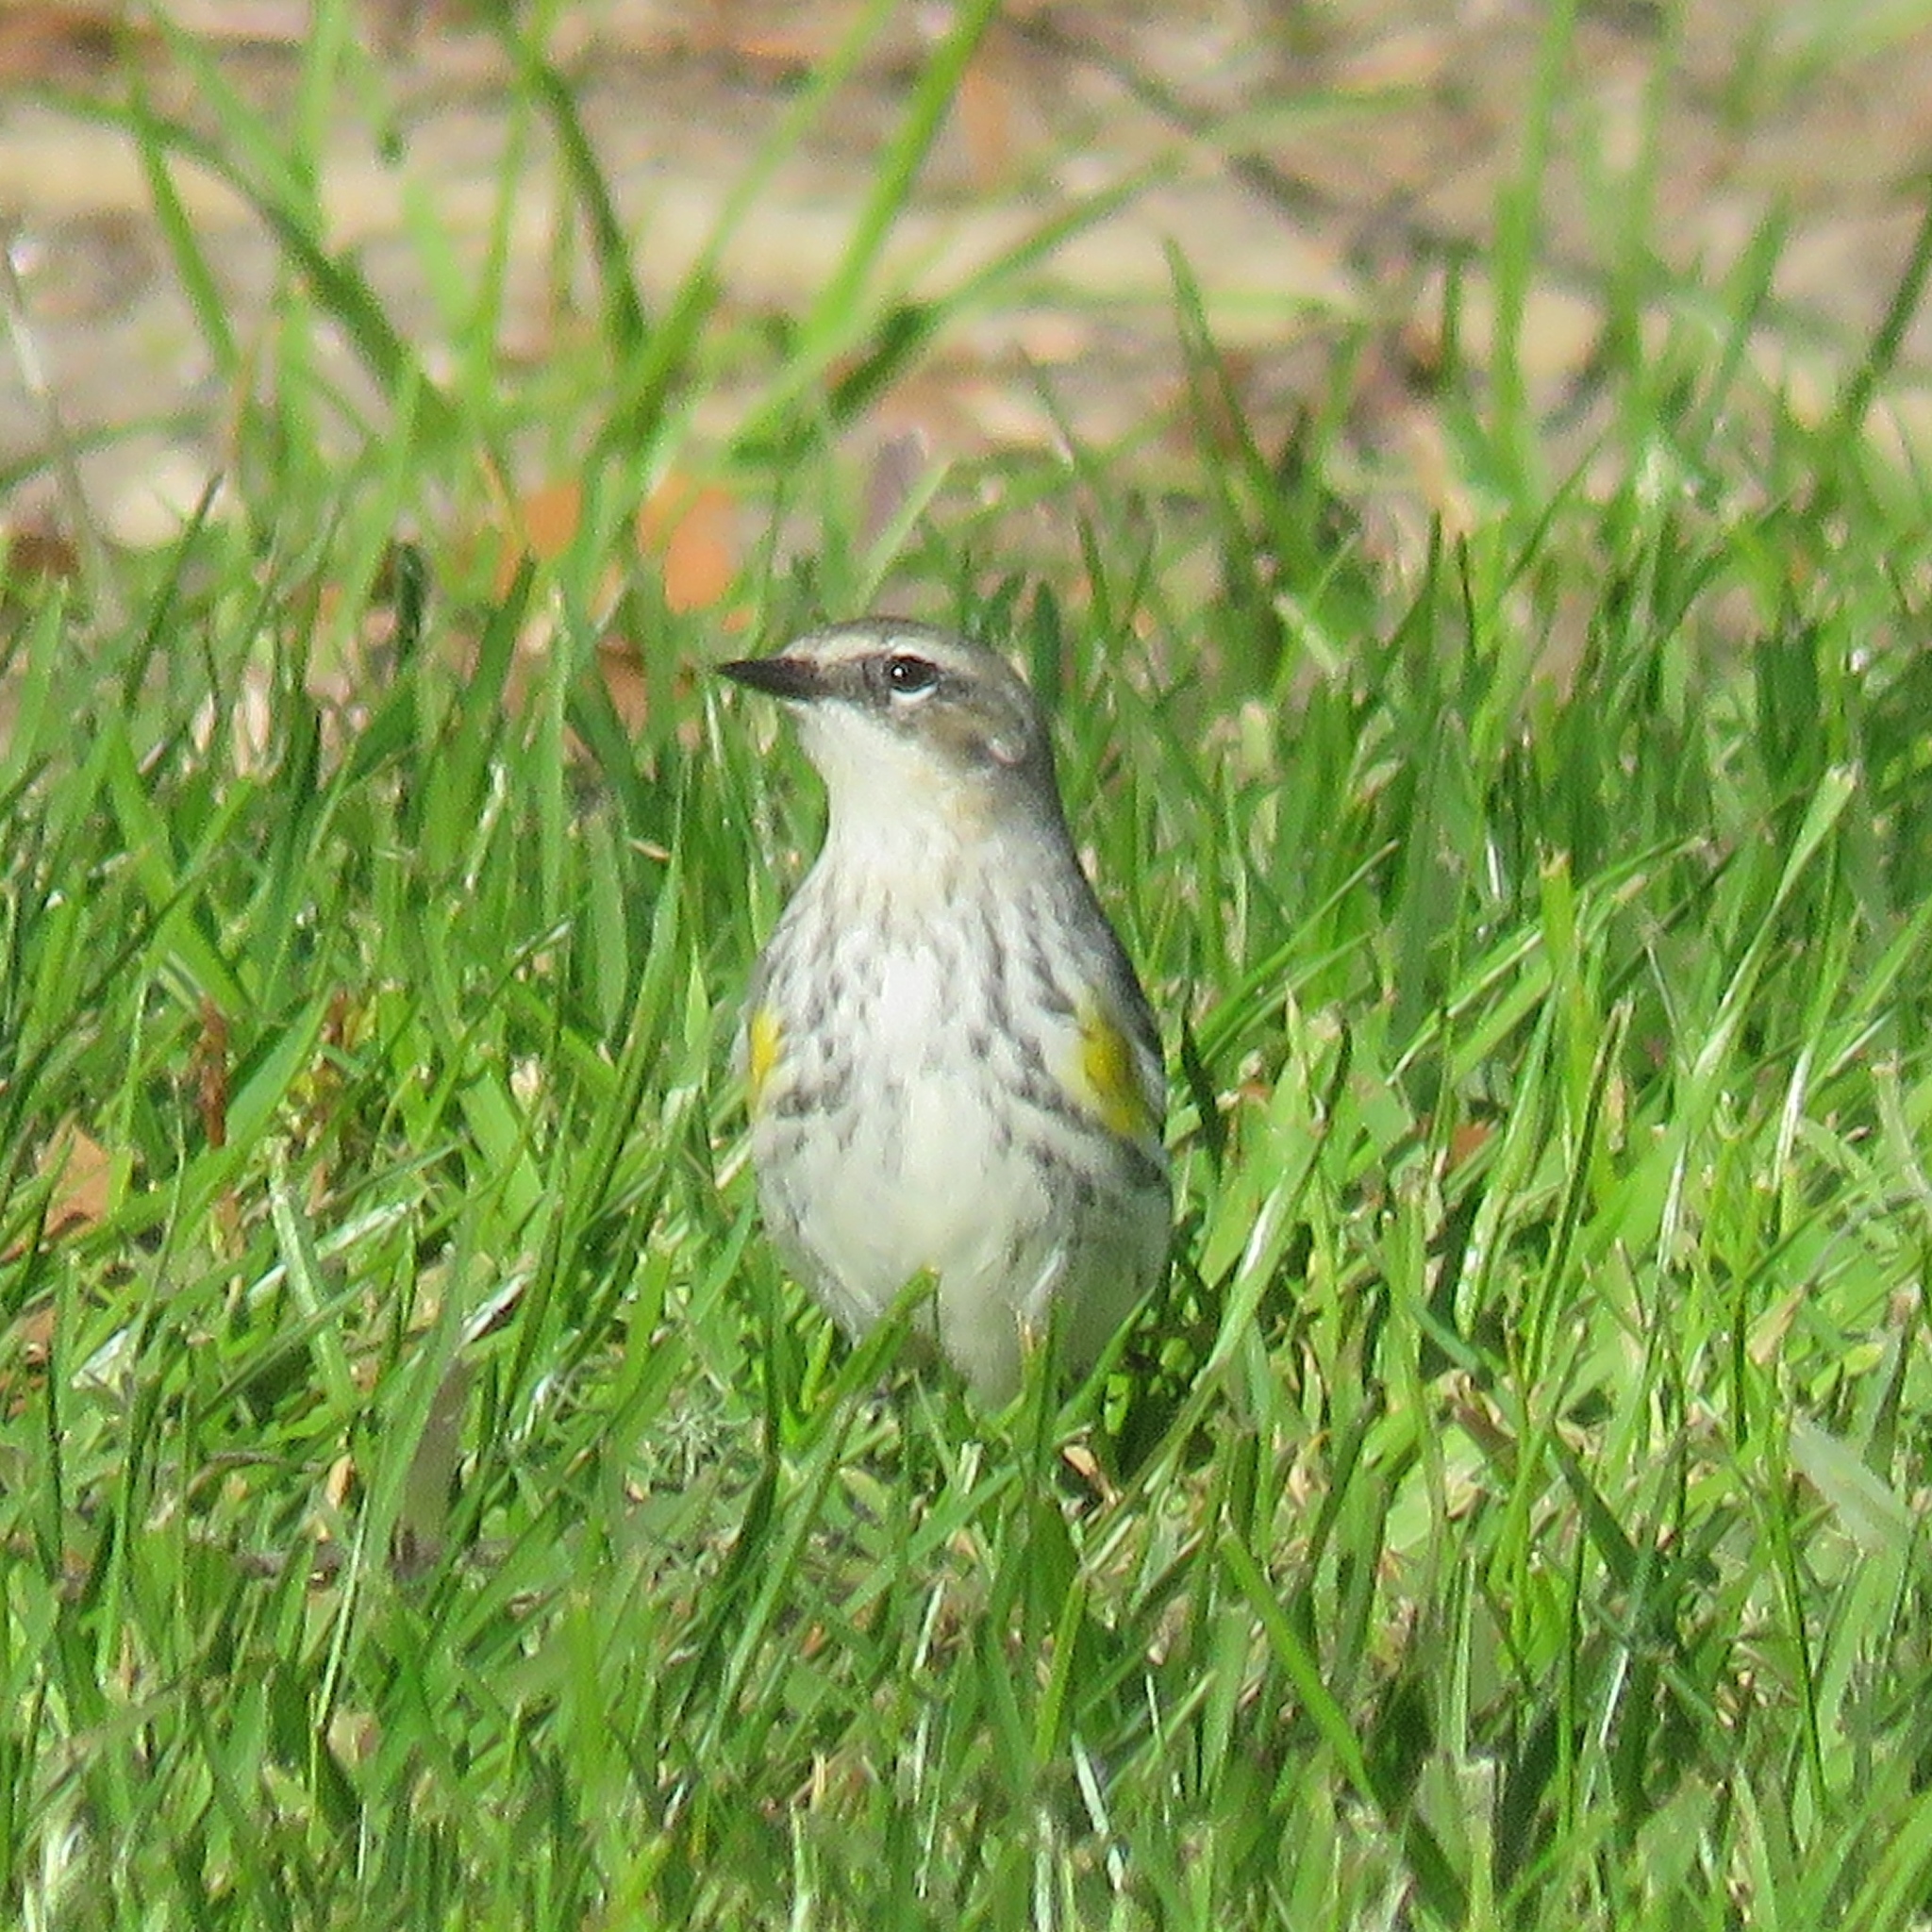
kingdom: Animalia
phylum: Chordata
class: Aves
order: Passeriformes
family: Parulidae
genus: Setophaga
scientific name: Setophaga coronata
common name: Myrtle warbler
